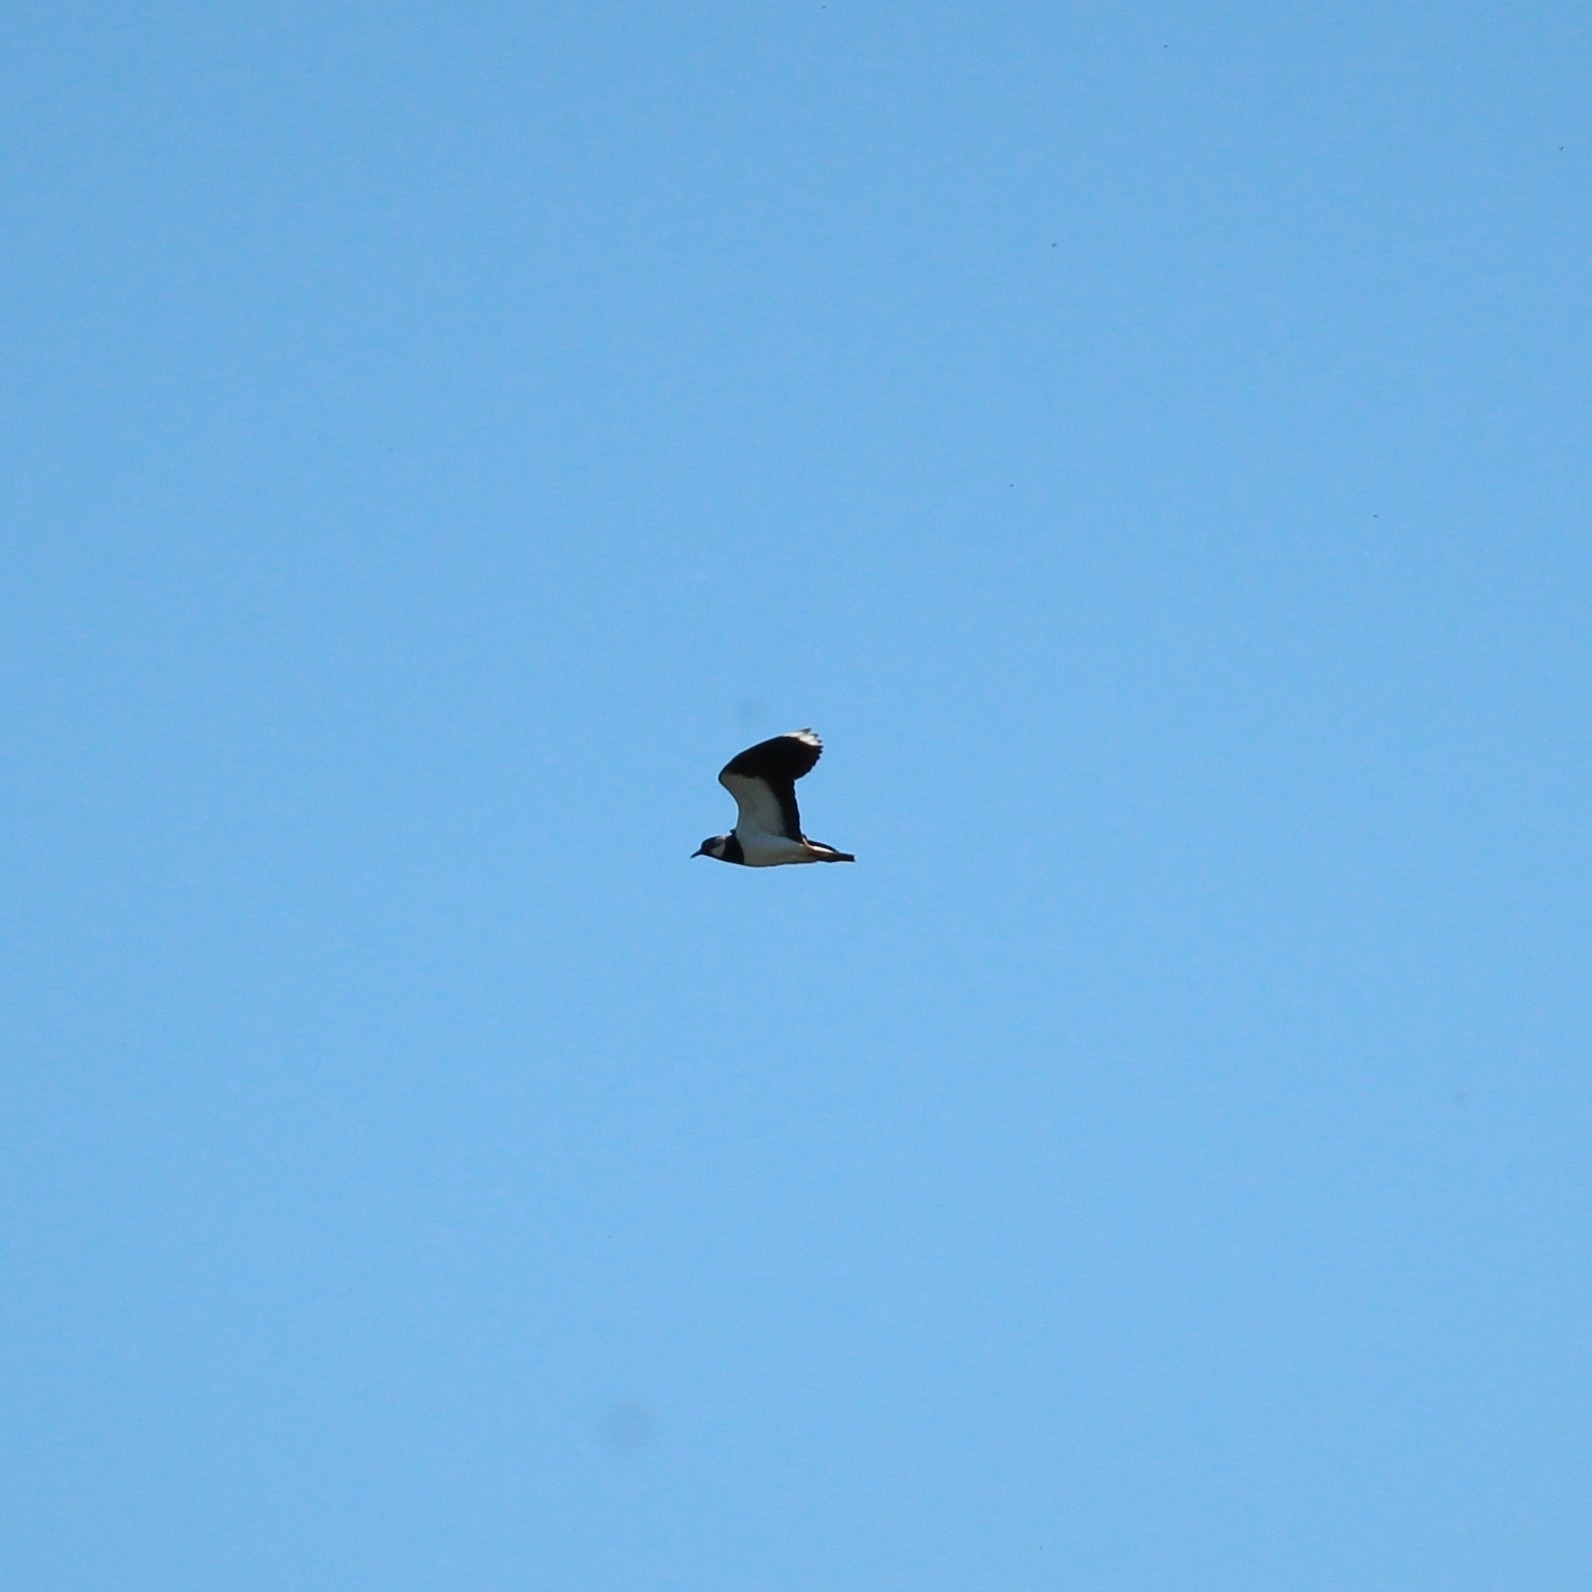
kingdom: Animalia
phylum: Chordata
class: Aves
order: Charadriiformes
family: Charadriidae
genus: Vanellus
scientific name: Vanellus vanellus
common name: Northern lapwing
